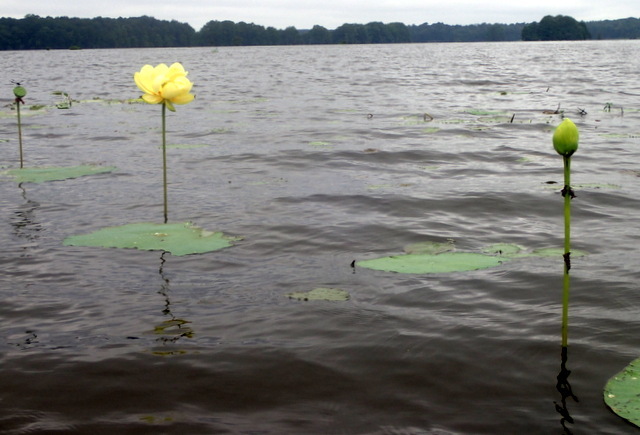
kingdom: Plantae
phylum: Tracheophyta
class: Magnoliopsida
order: Proteales
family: Nelumbonaceae
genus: Nelumbo
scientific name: Nelumbo lutea
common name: American lotus
